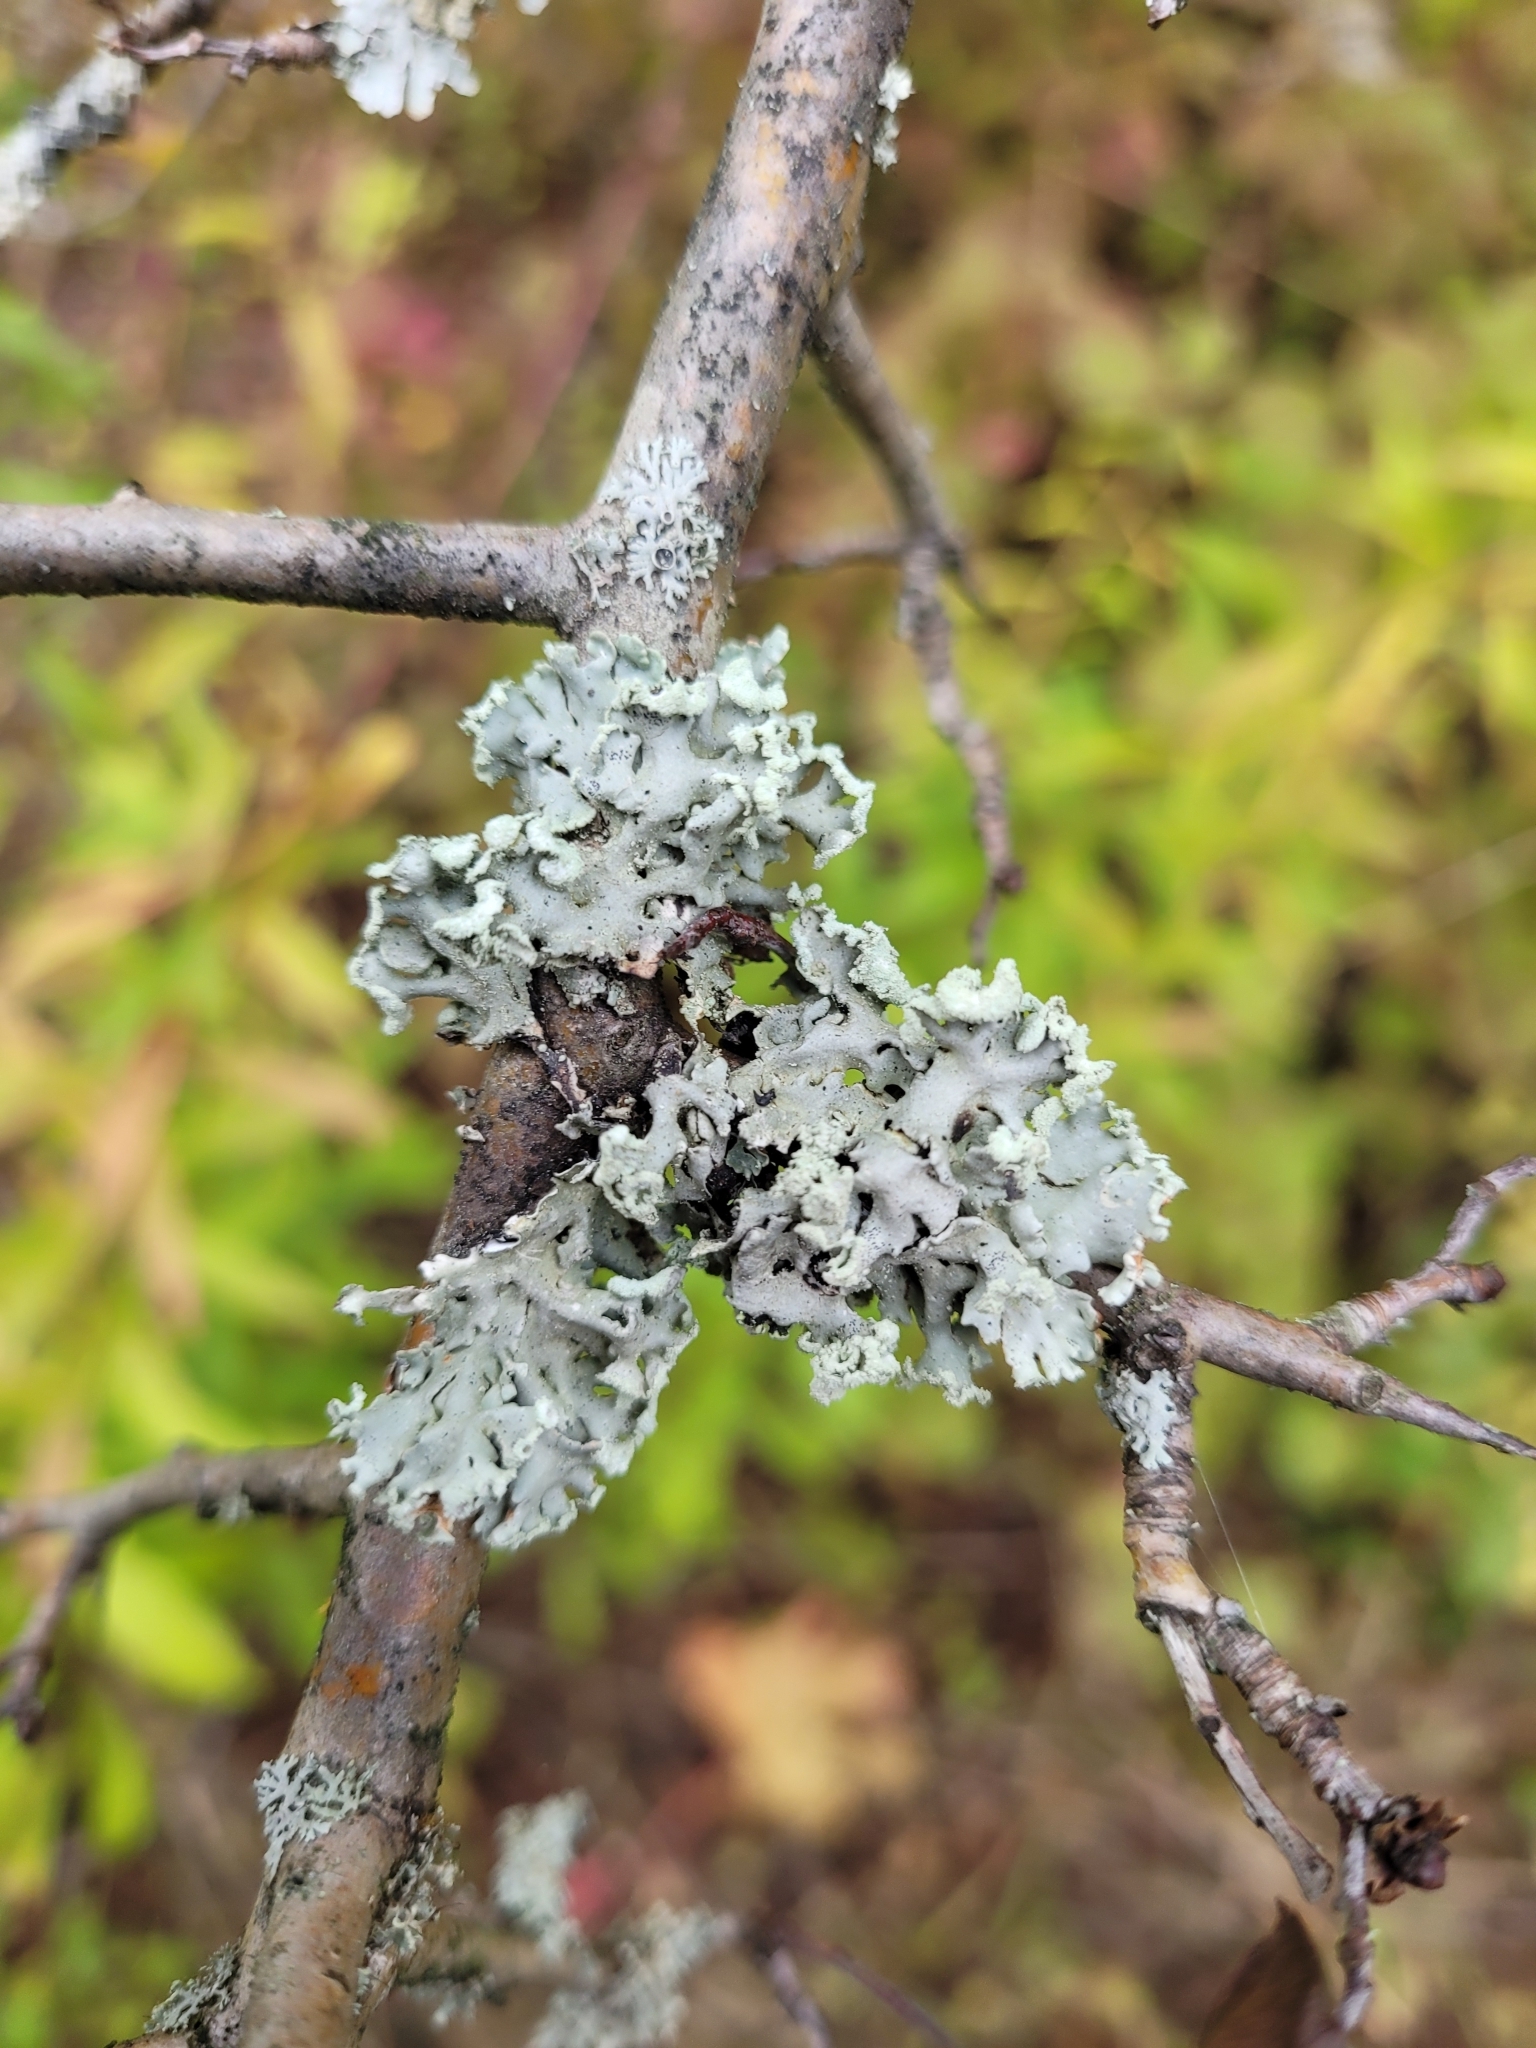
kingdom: Fungi
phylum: Ascomycota
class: Lecanoromycetes
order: Lecanorales
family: Parmeliaceae
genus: Hypogymnia
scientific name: Hypogymnia physodes
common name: Dark crottle
